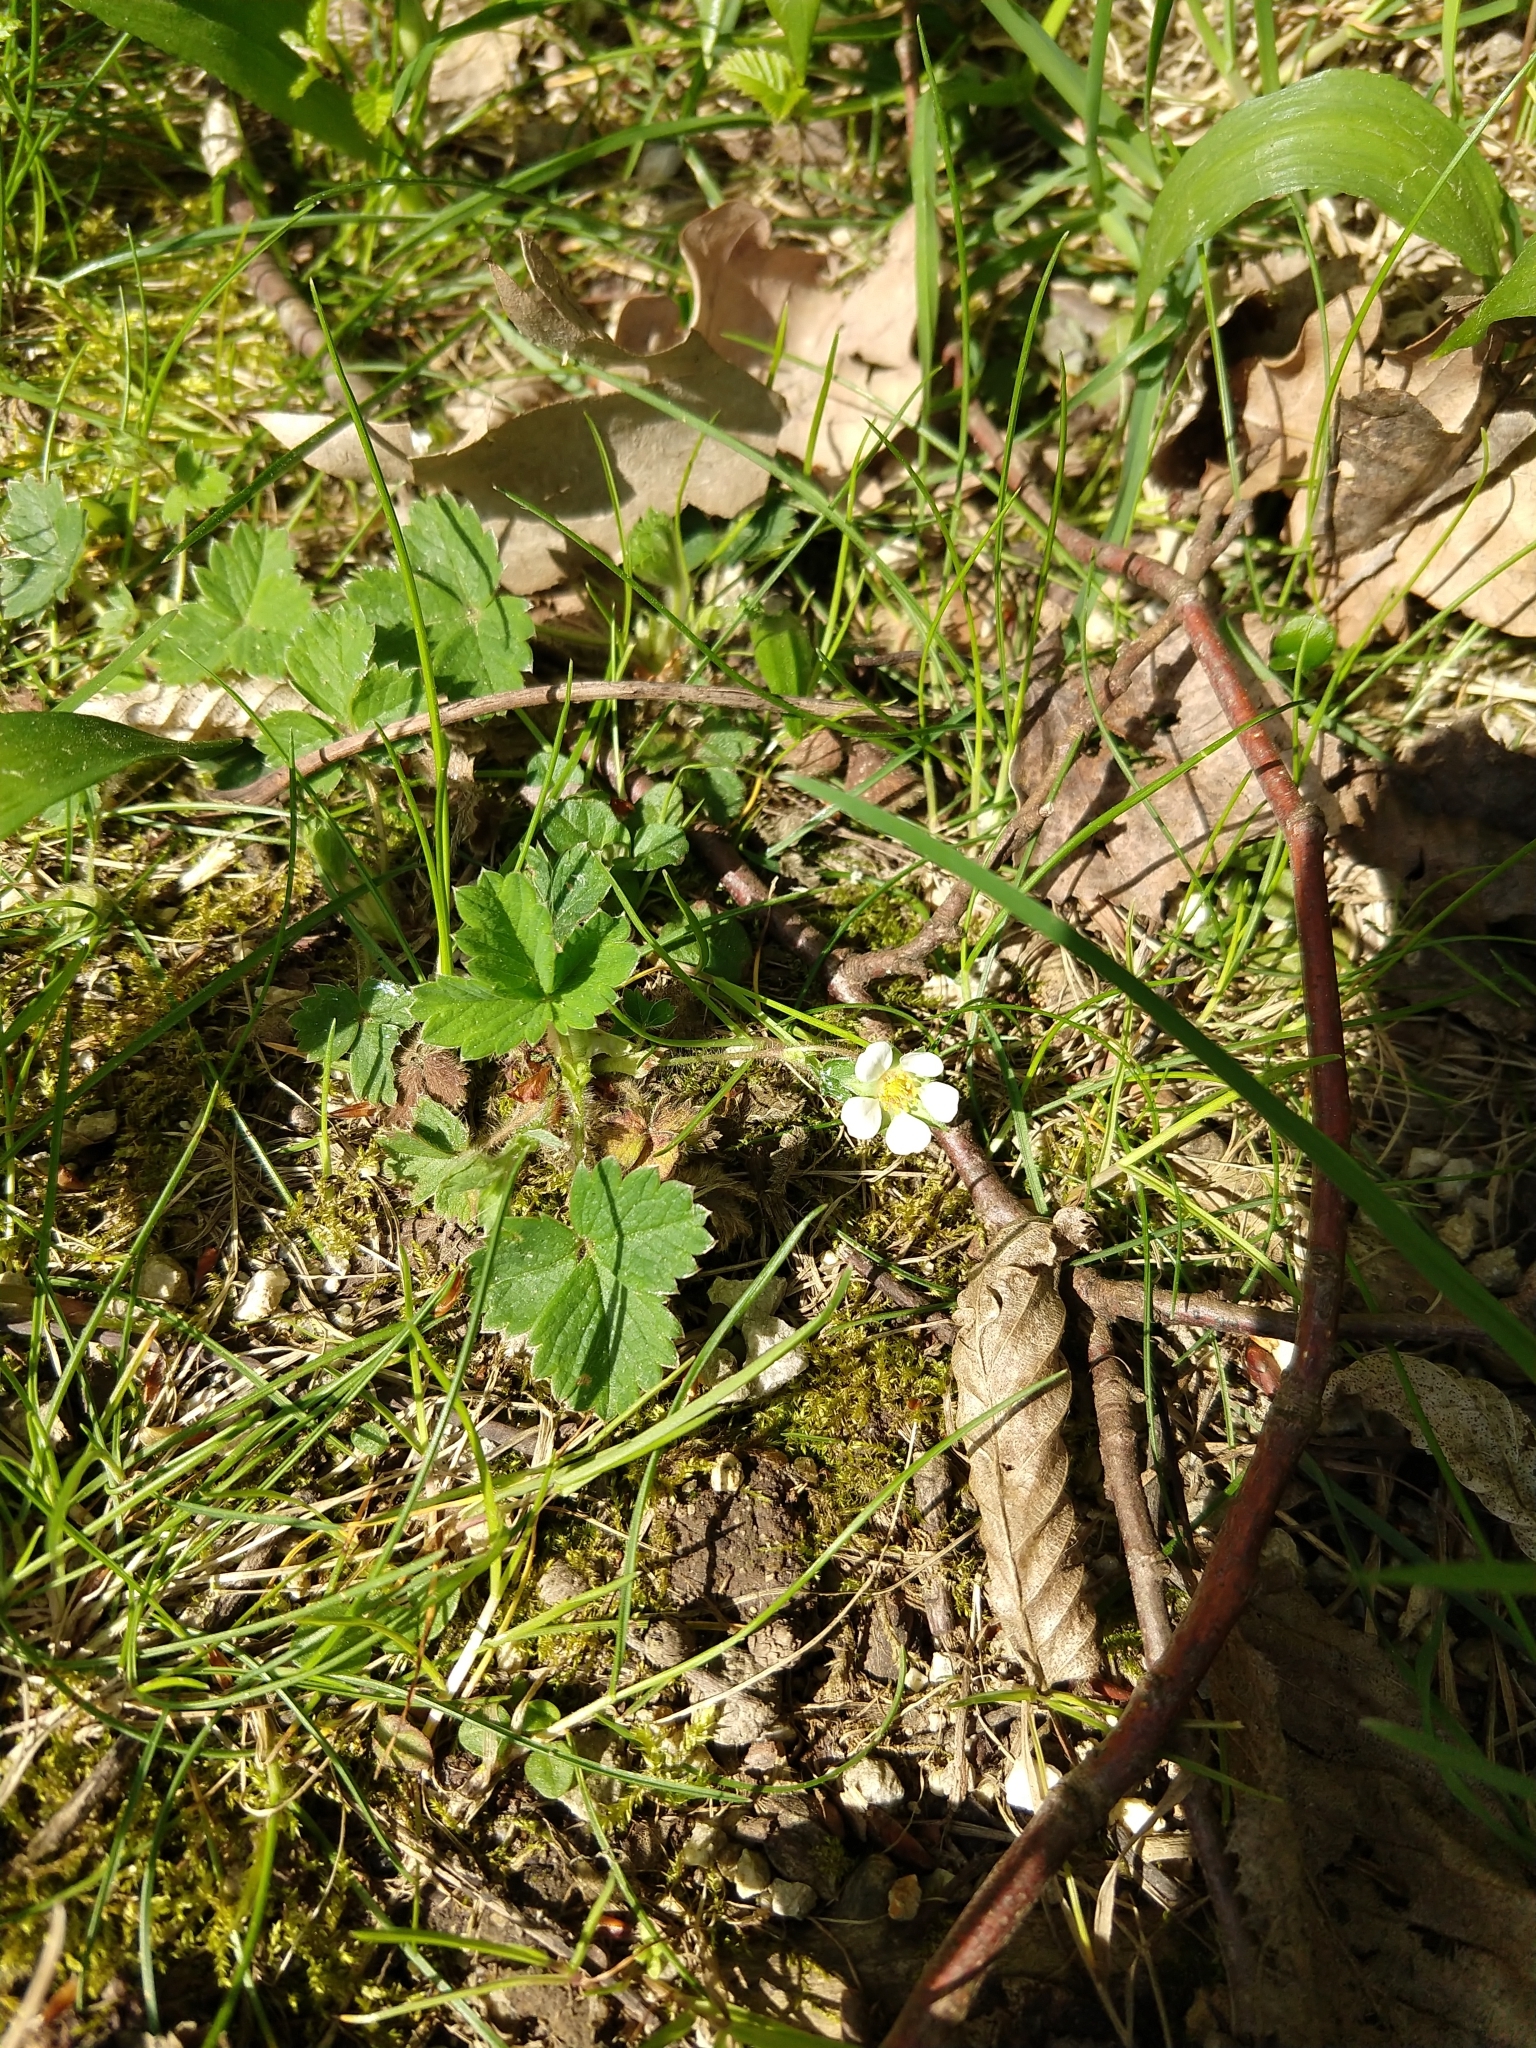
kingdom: Plantae
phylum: Tracheophyta
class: Magnoliopsida
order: Rosales
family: Rosaceae
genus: Potentilla
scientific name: Potentilla sterilis
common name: Barren strawberry
